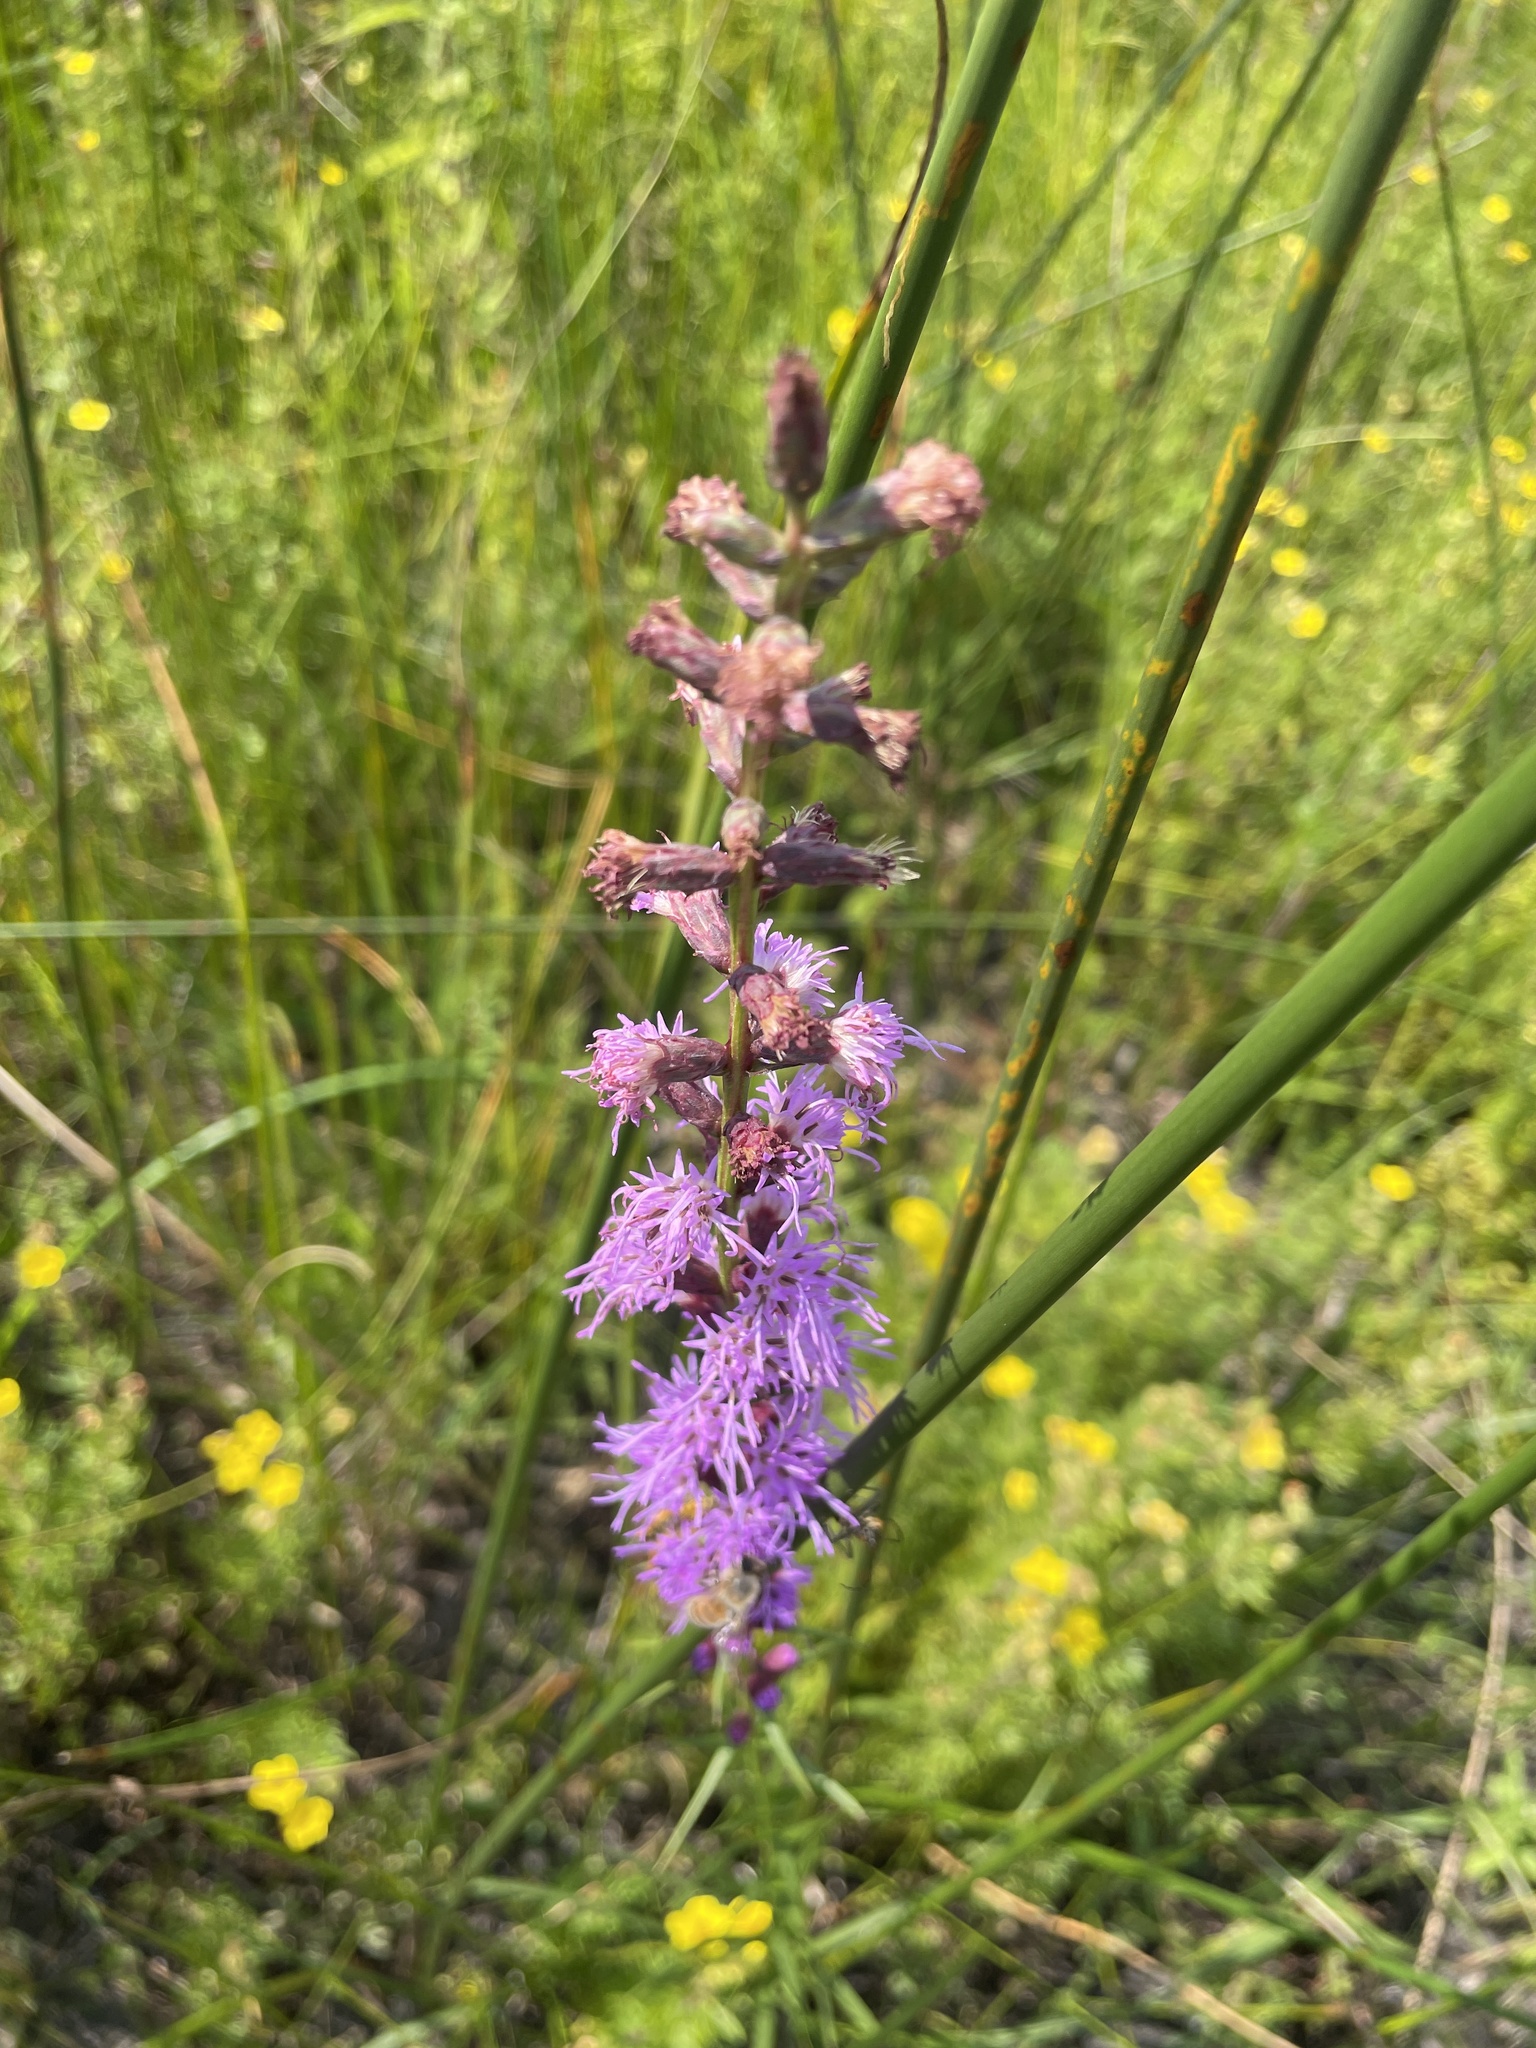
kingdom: Plantae
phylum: Tracheophyta
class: Magnoliopsida
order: Asterales
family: Asteraceae
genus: Liatris
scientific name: Liatris spicata
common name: Florist gayfeather
